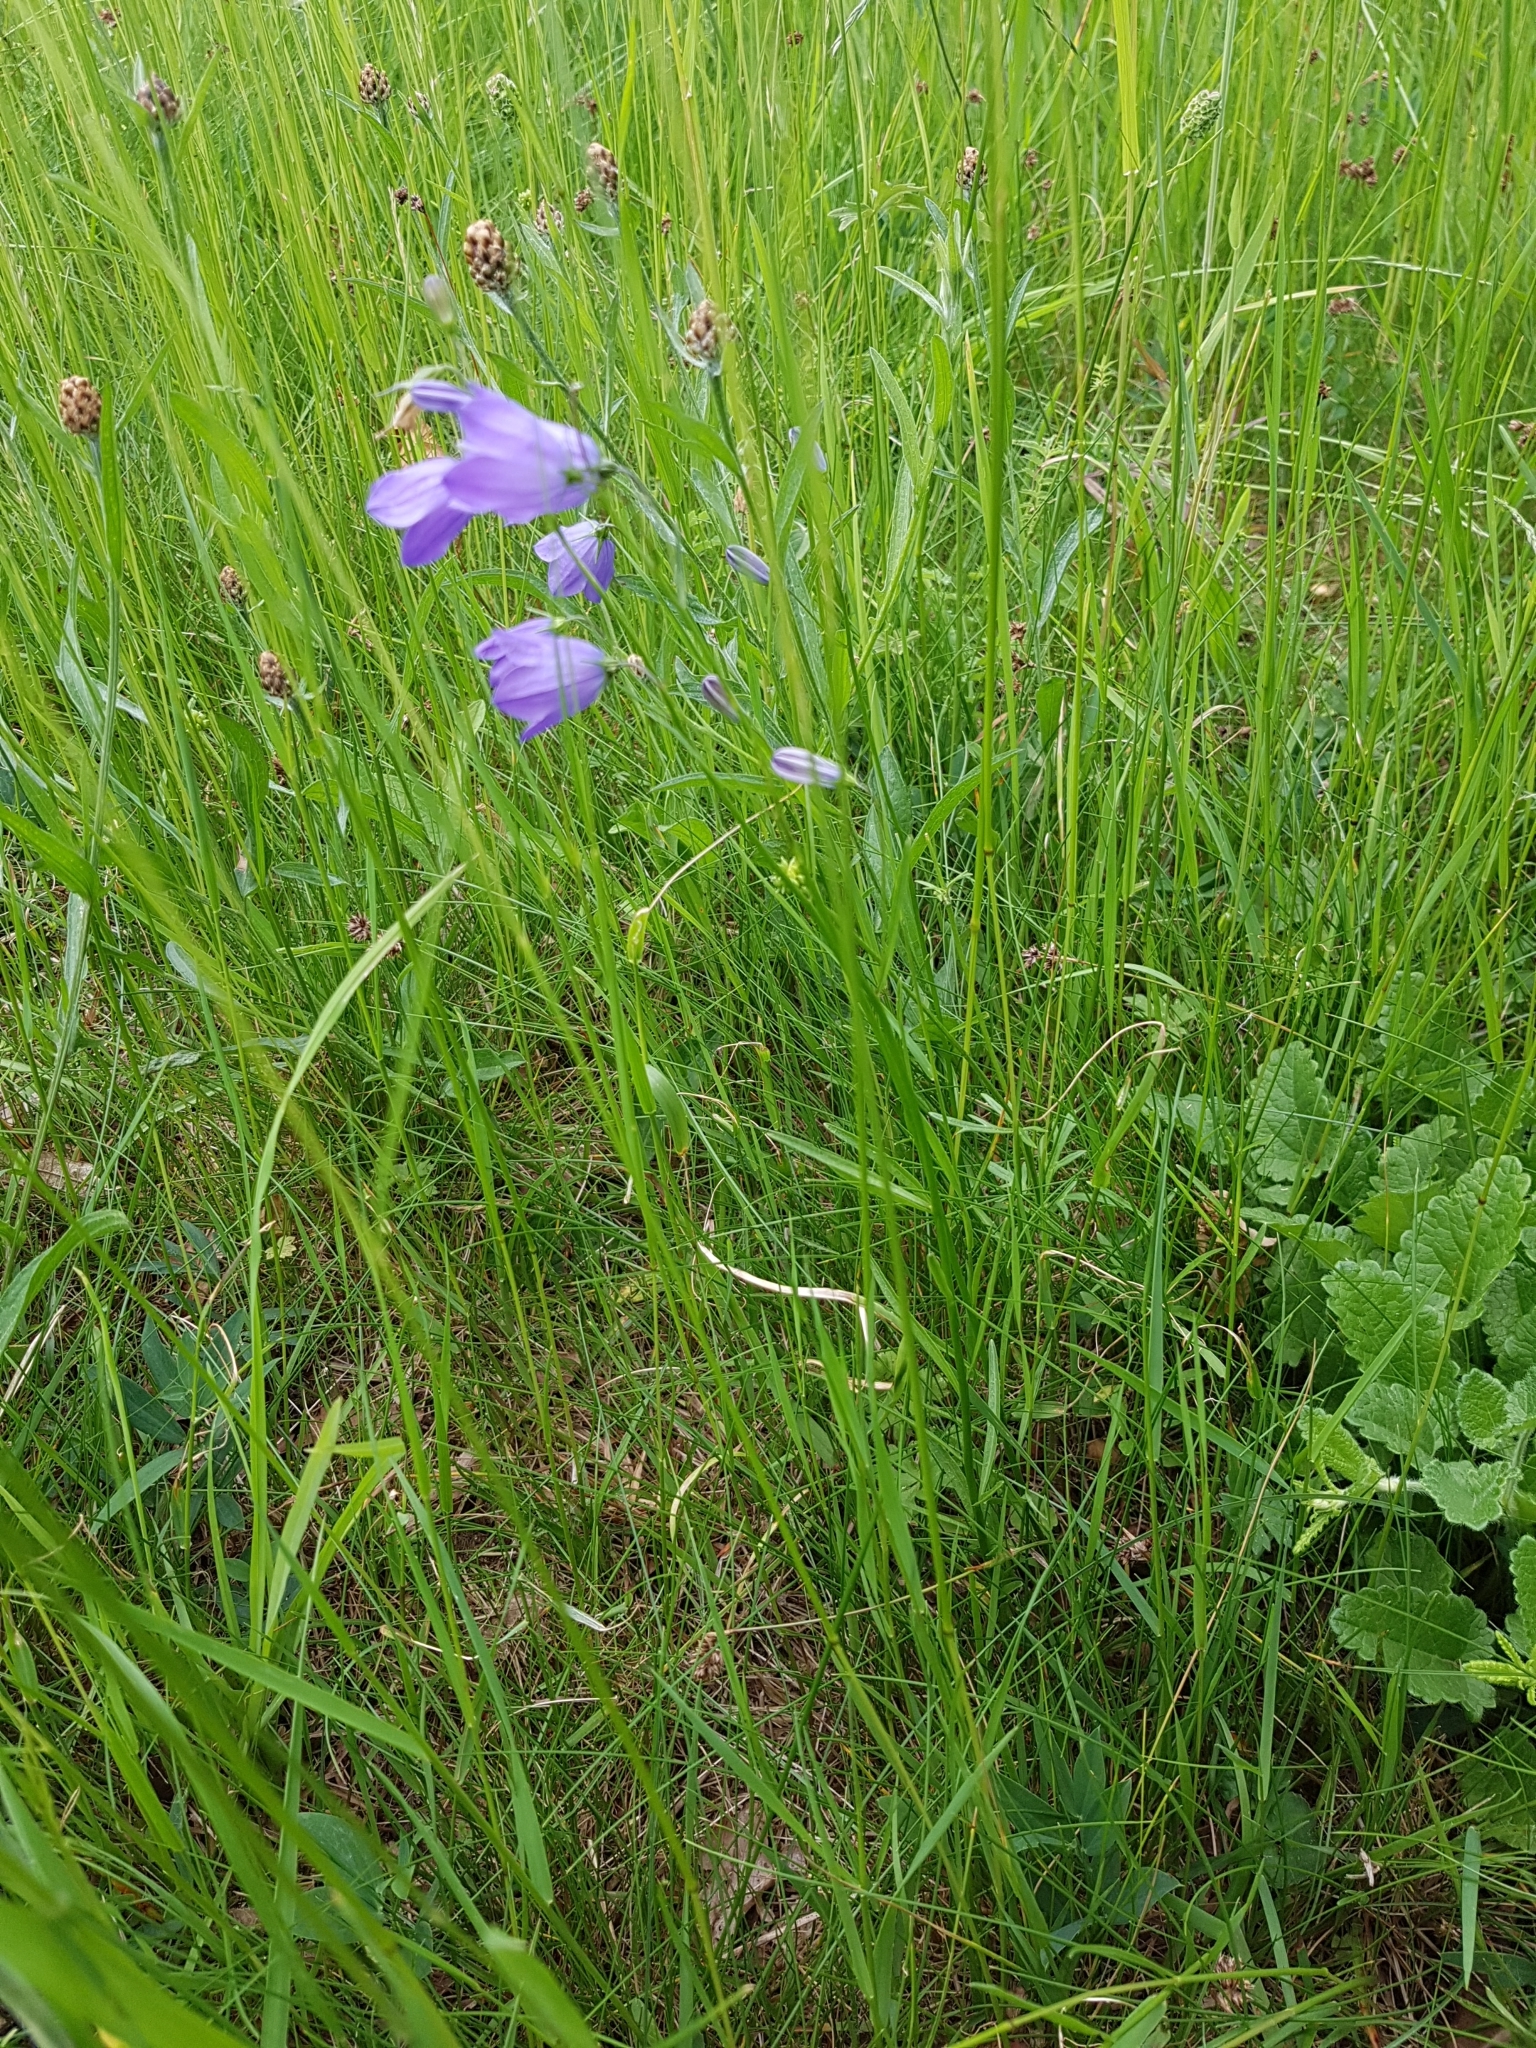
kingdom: Plantae
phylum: Tracheophyta
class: Magnoliopsida
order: Asterales
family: Campanulaceae
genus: Campanula
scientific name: Campanula rotundifolia
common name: Harebell
